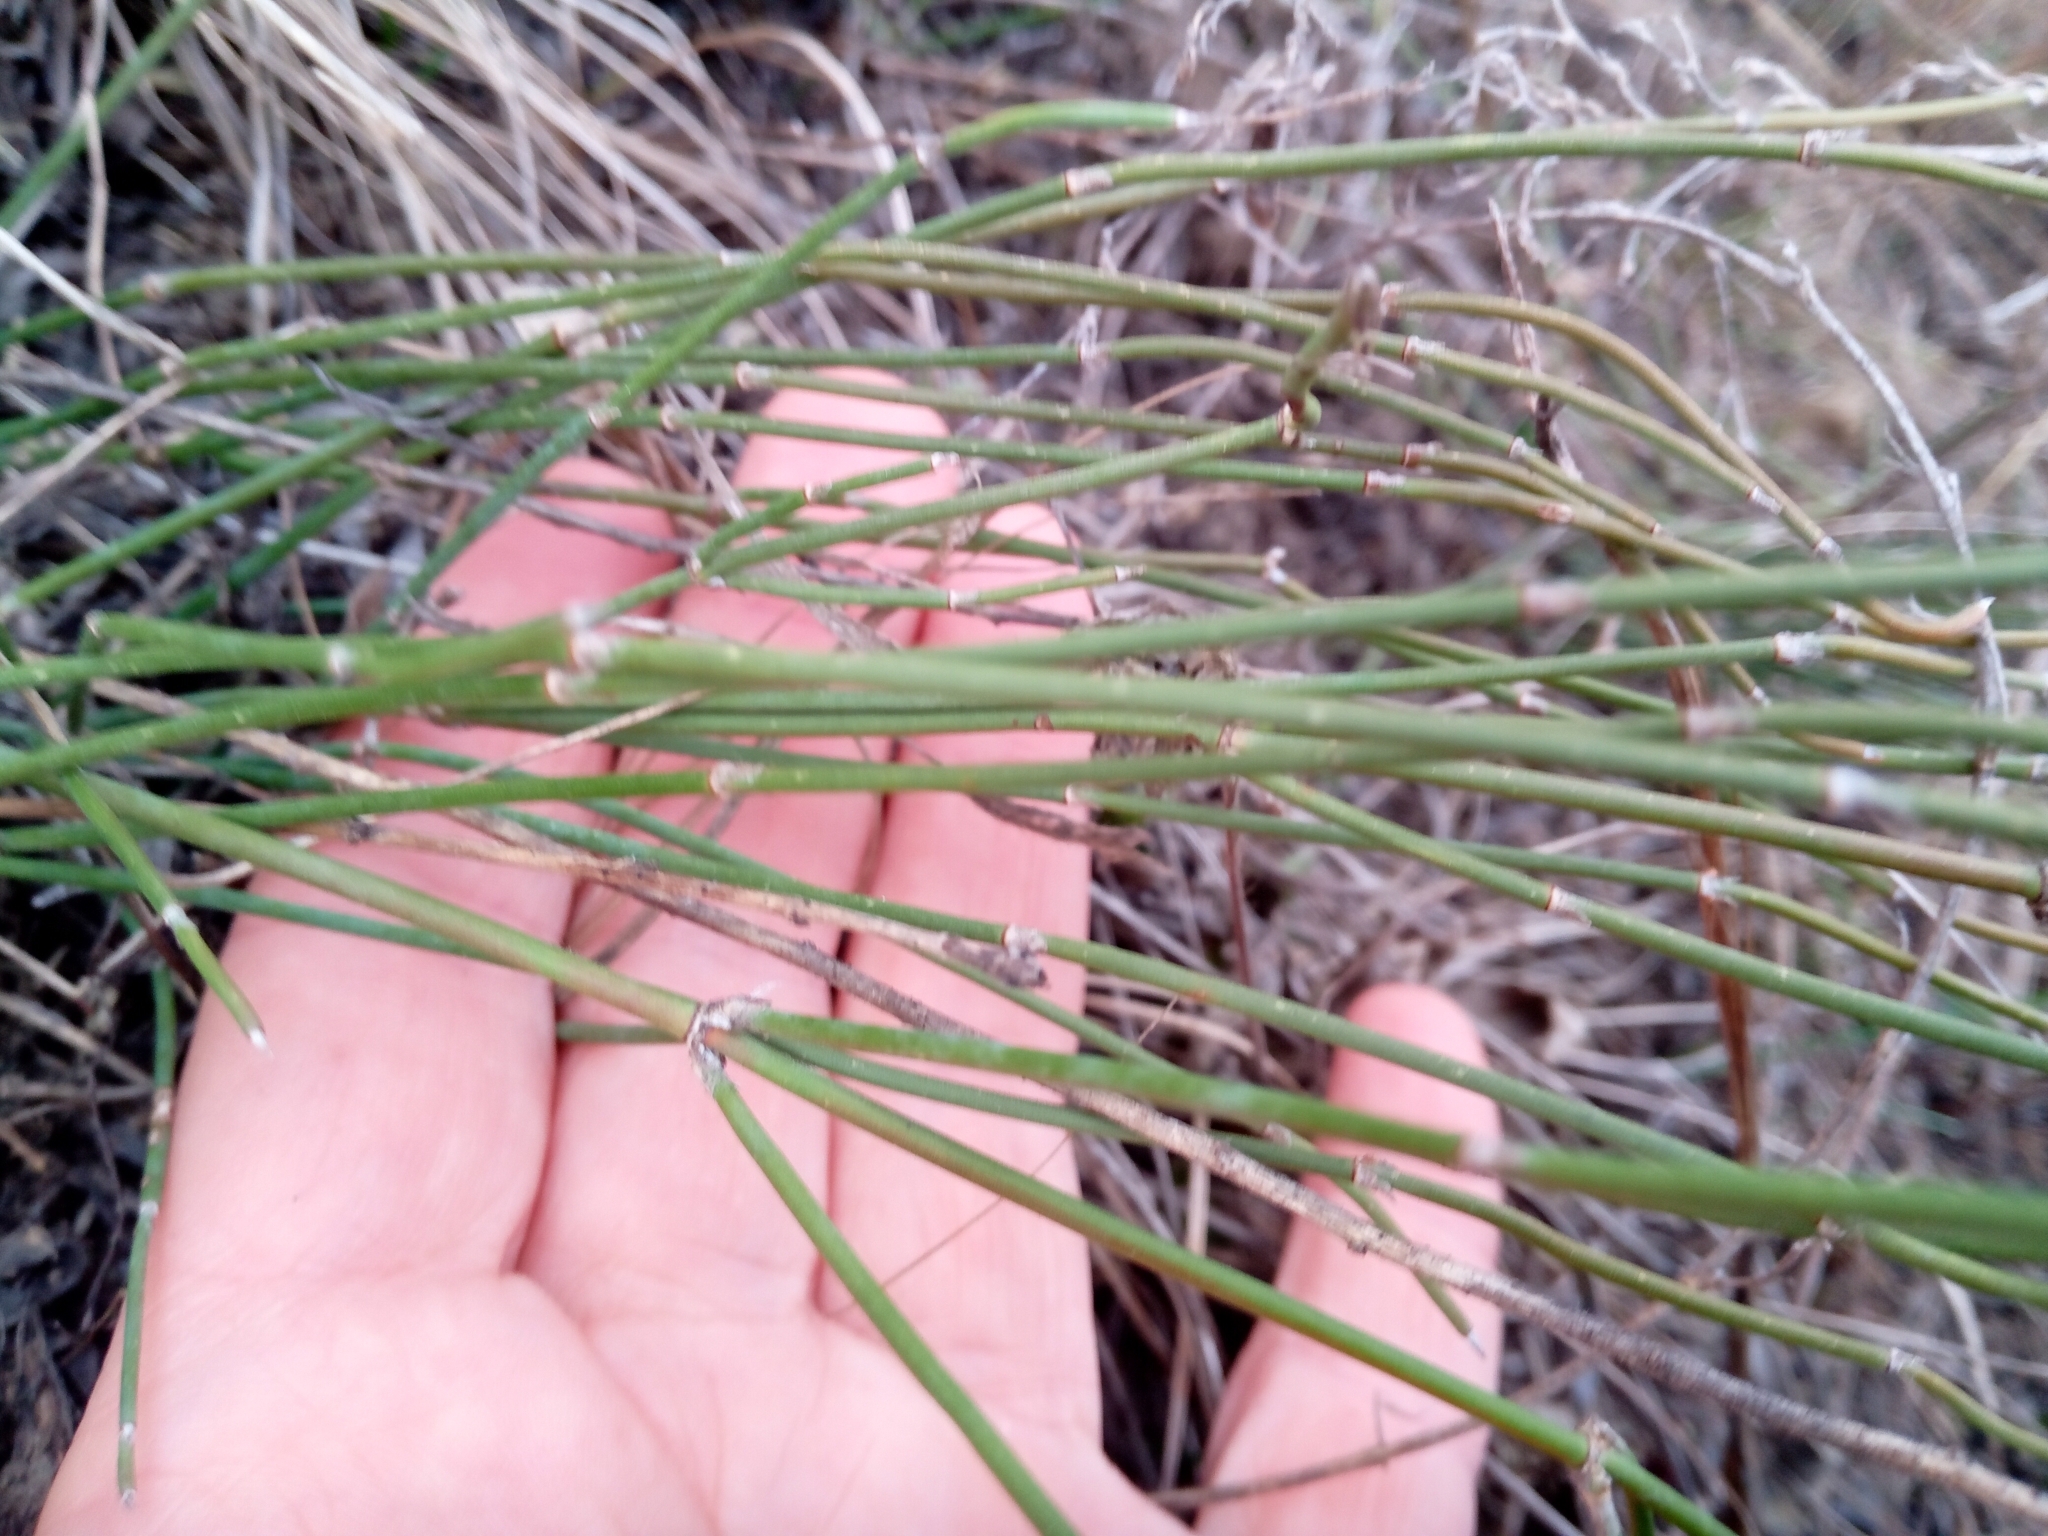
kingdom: Plantae
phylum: Tracheophyta
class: Gnetopsida
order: Ephedrales
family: Ephedraceae
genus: Ephedra
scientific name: Ephedra distachya
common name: Sea grape
